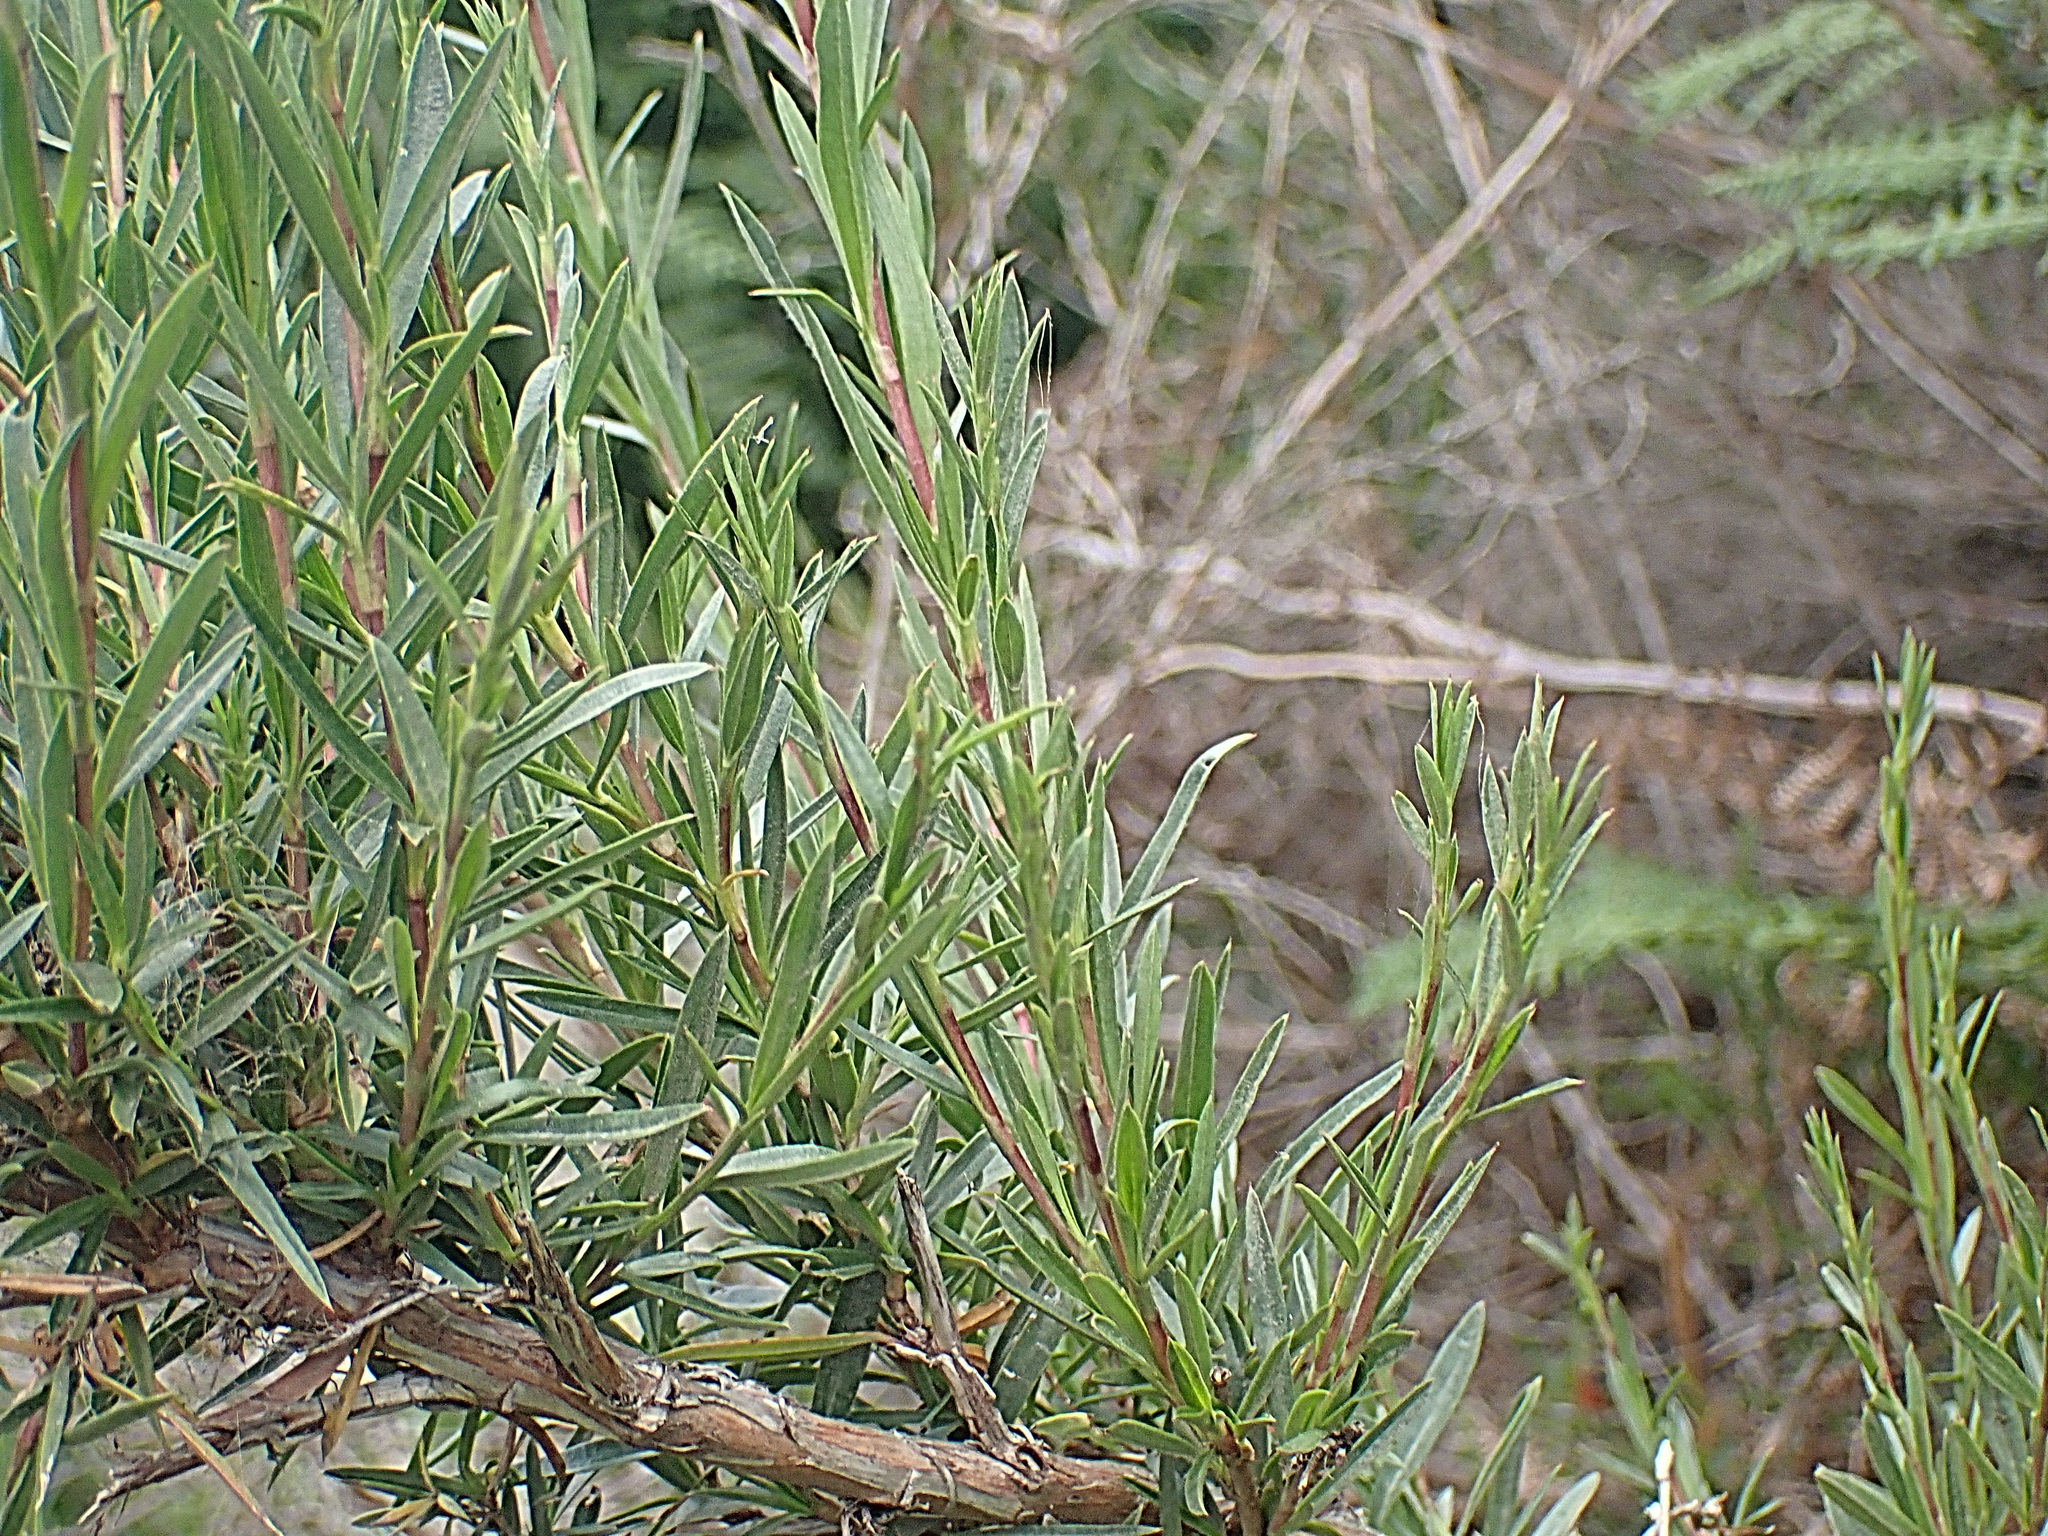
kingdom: Plantae
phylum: Tracheophyta
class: Magnoliopsida
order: Rosales
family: Rosaceae
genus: Cliffortia
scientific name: Cliffortia strobilifera
